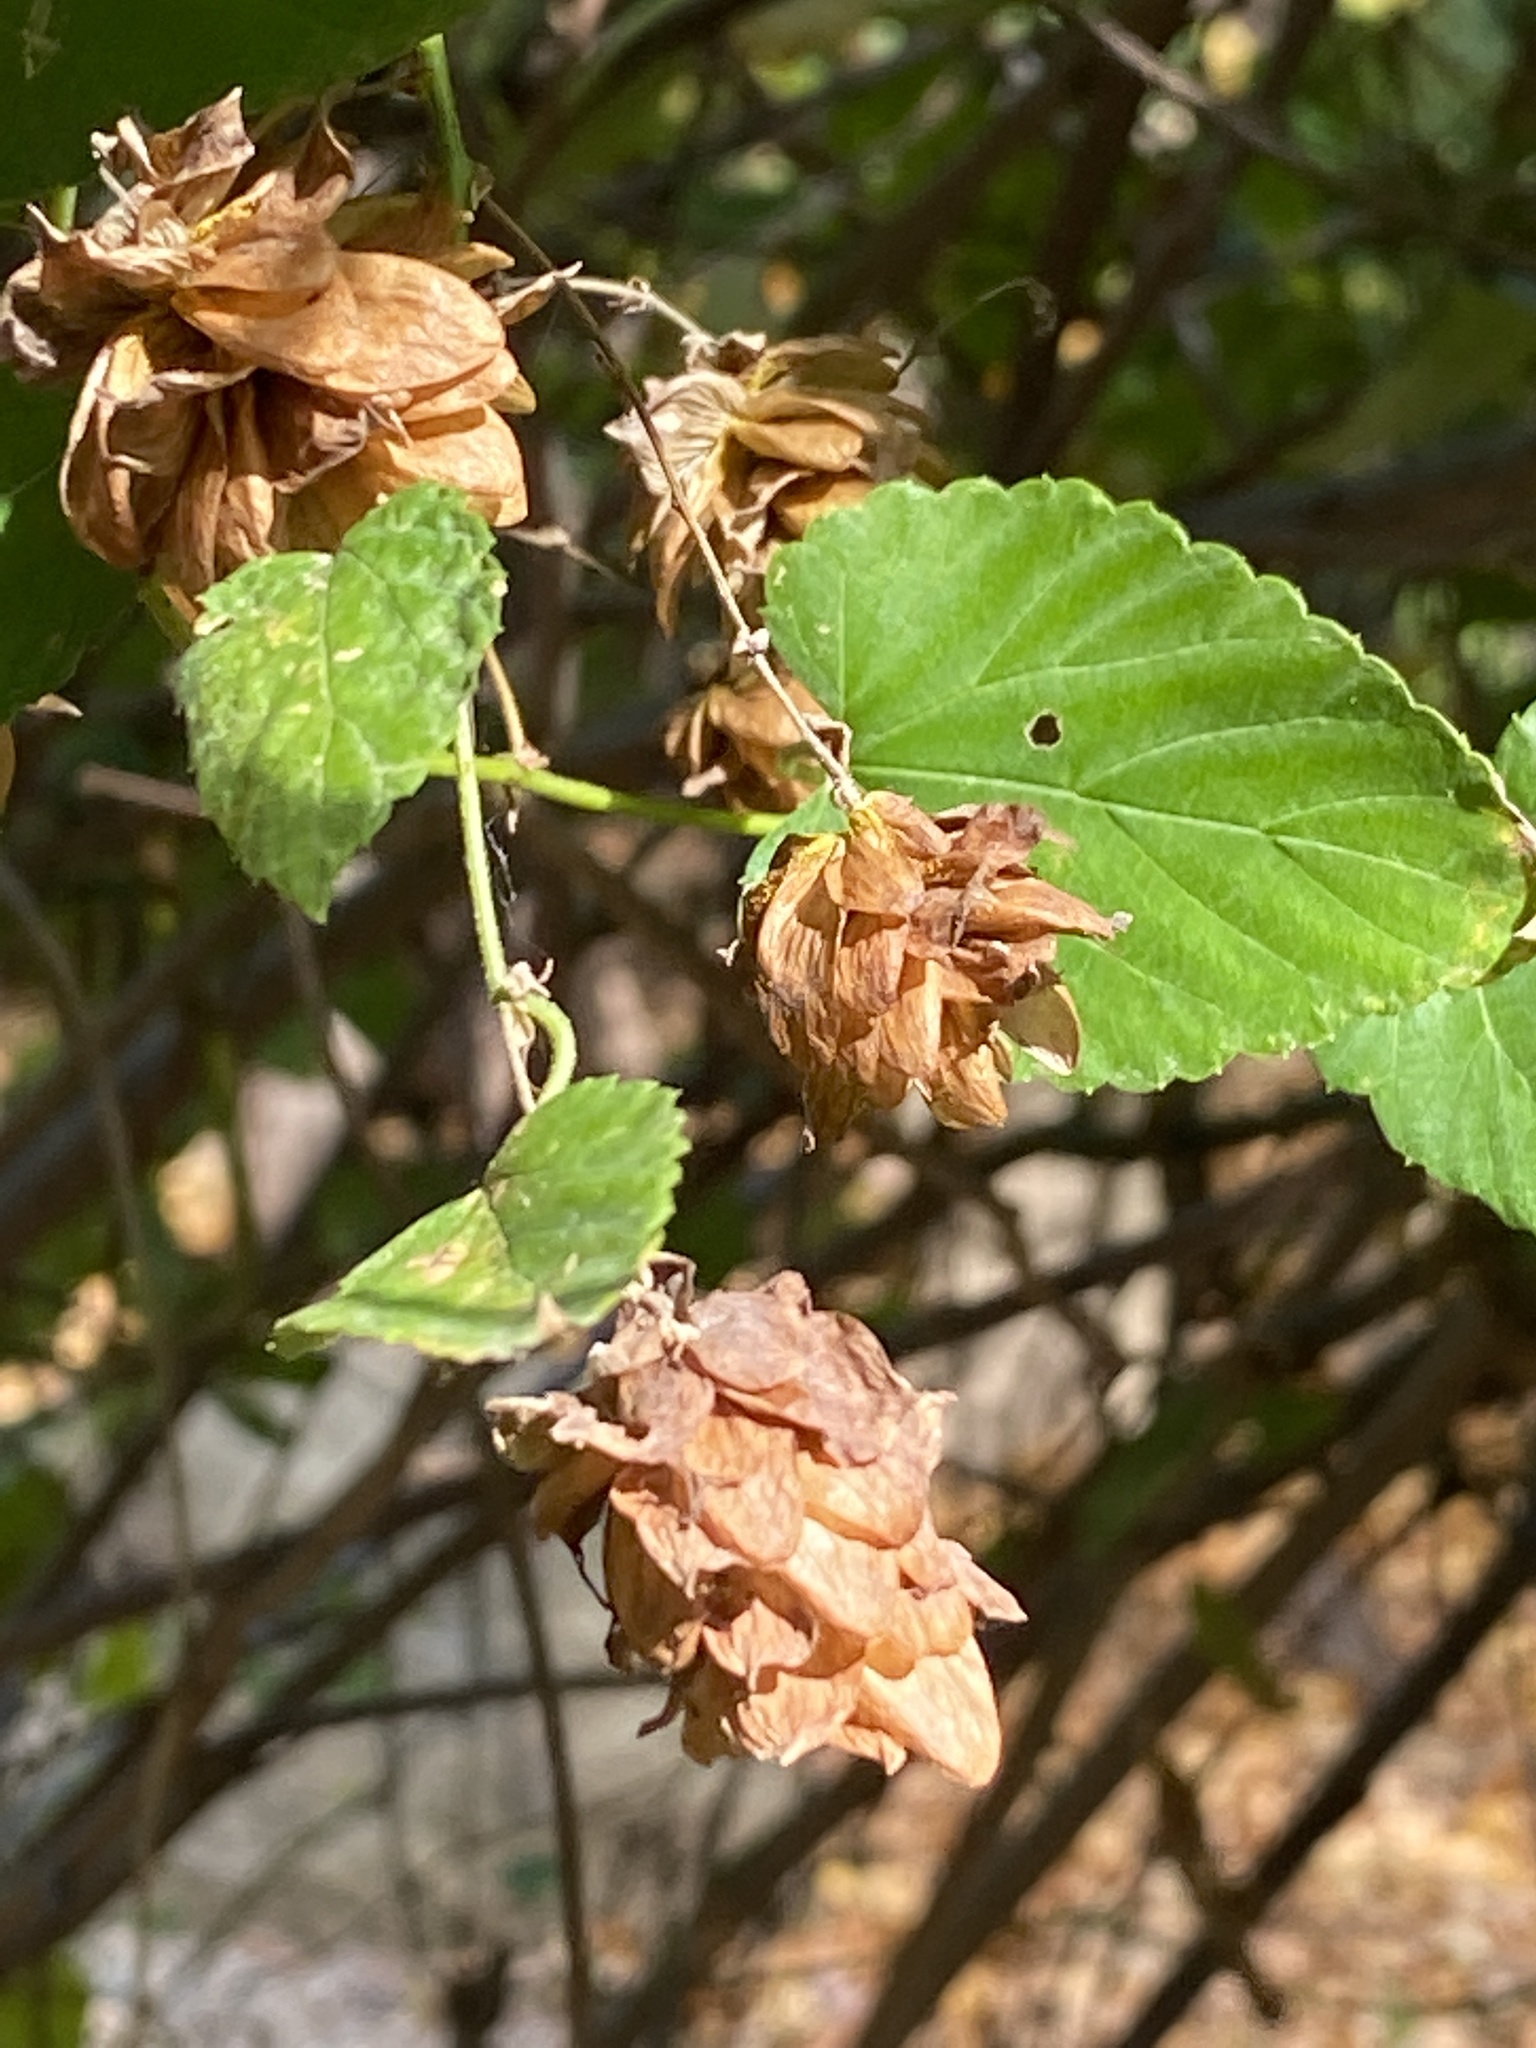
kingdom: Plantae
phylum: Tracheophyta
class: Magnoliopsida
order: Rosales
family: Cannabaceae
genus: Humulus
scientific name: Humulus lupulus
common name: Hop
